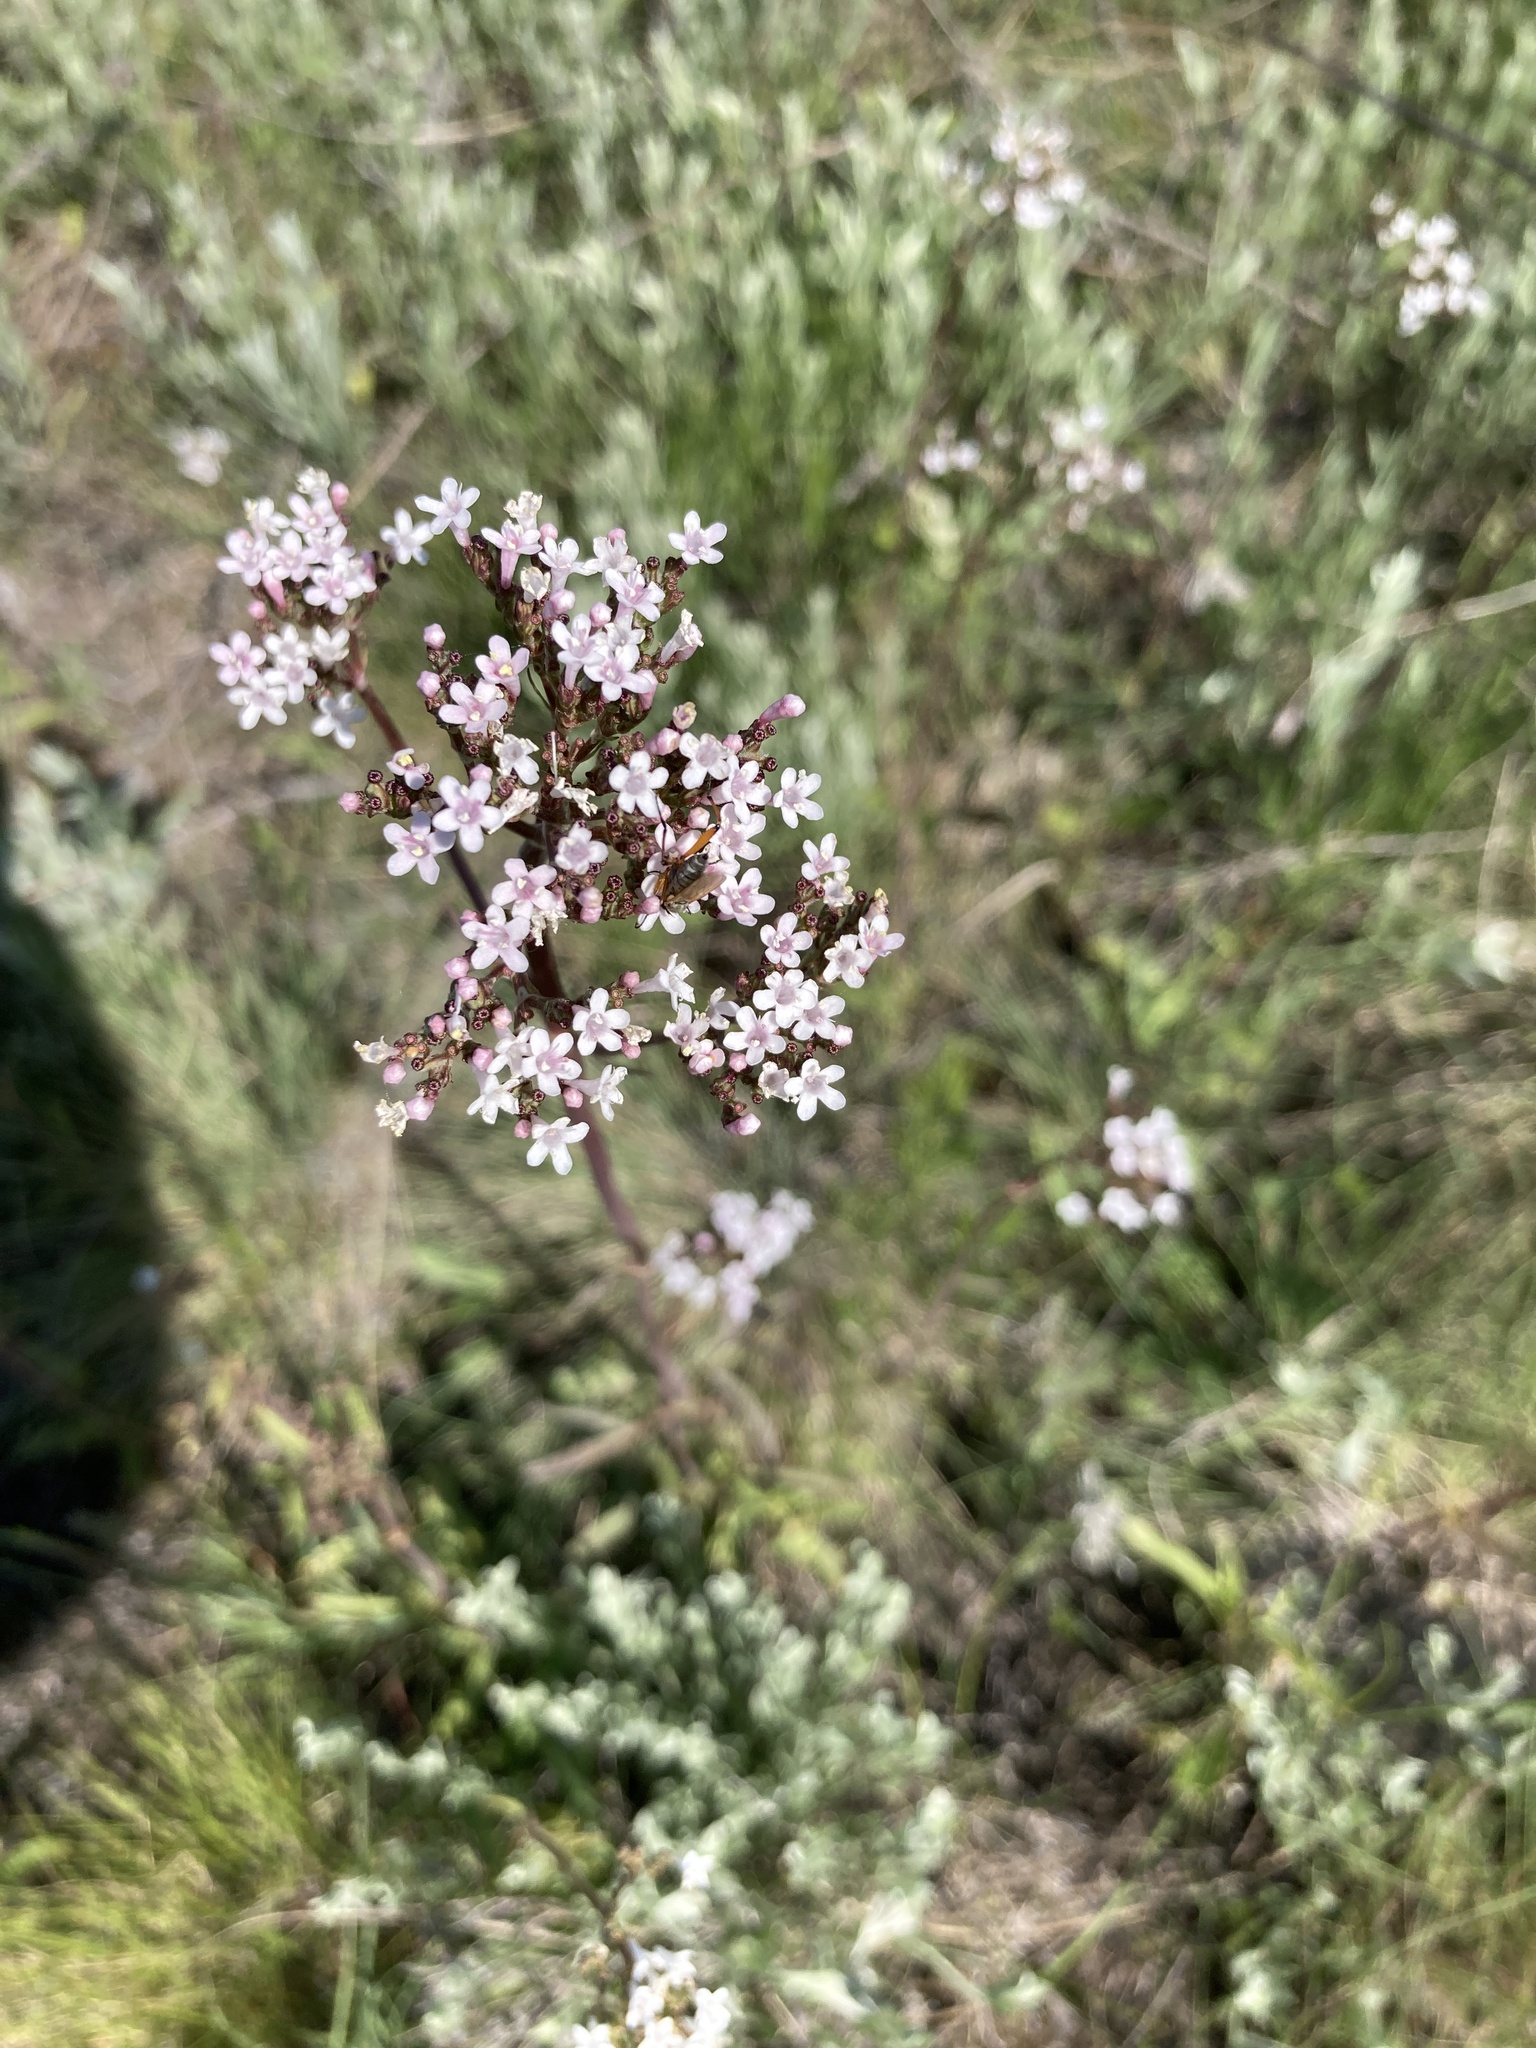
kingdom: Plantae
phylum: Tracheophyta
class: Magnoliopsida
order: Dipsacales
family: Caprifoliaceae
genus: Valeriana
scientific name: Valeriana tuberosa
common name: Tuberous valerian
